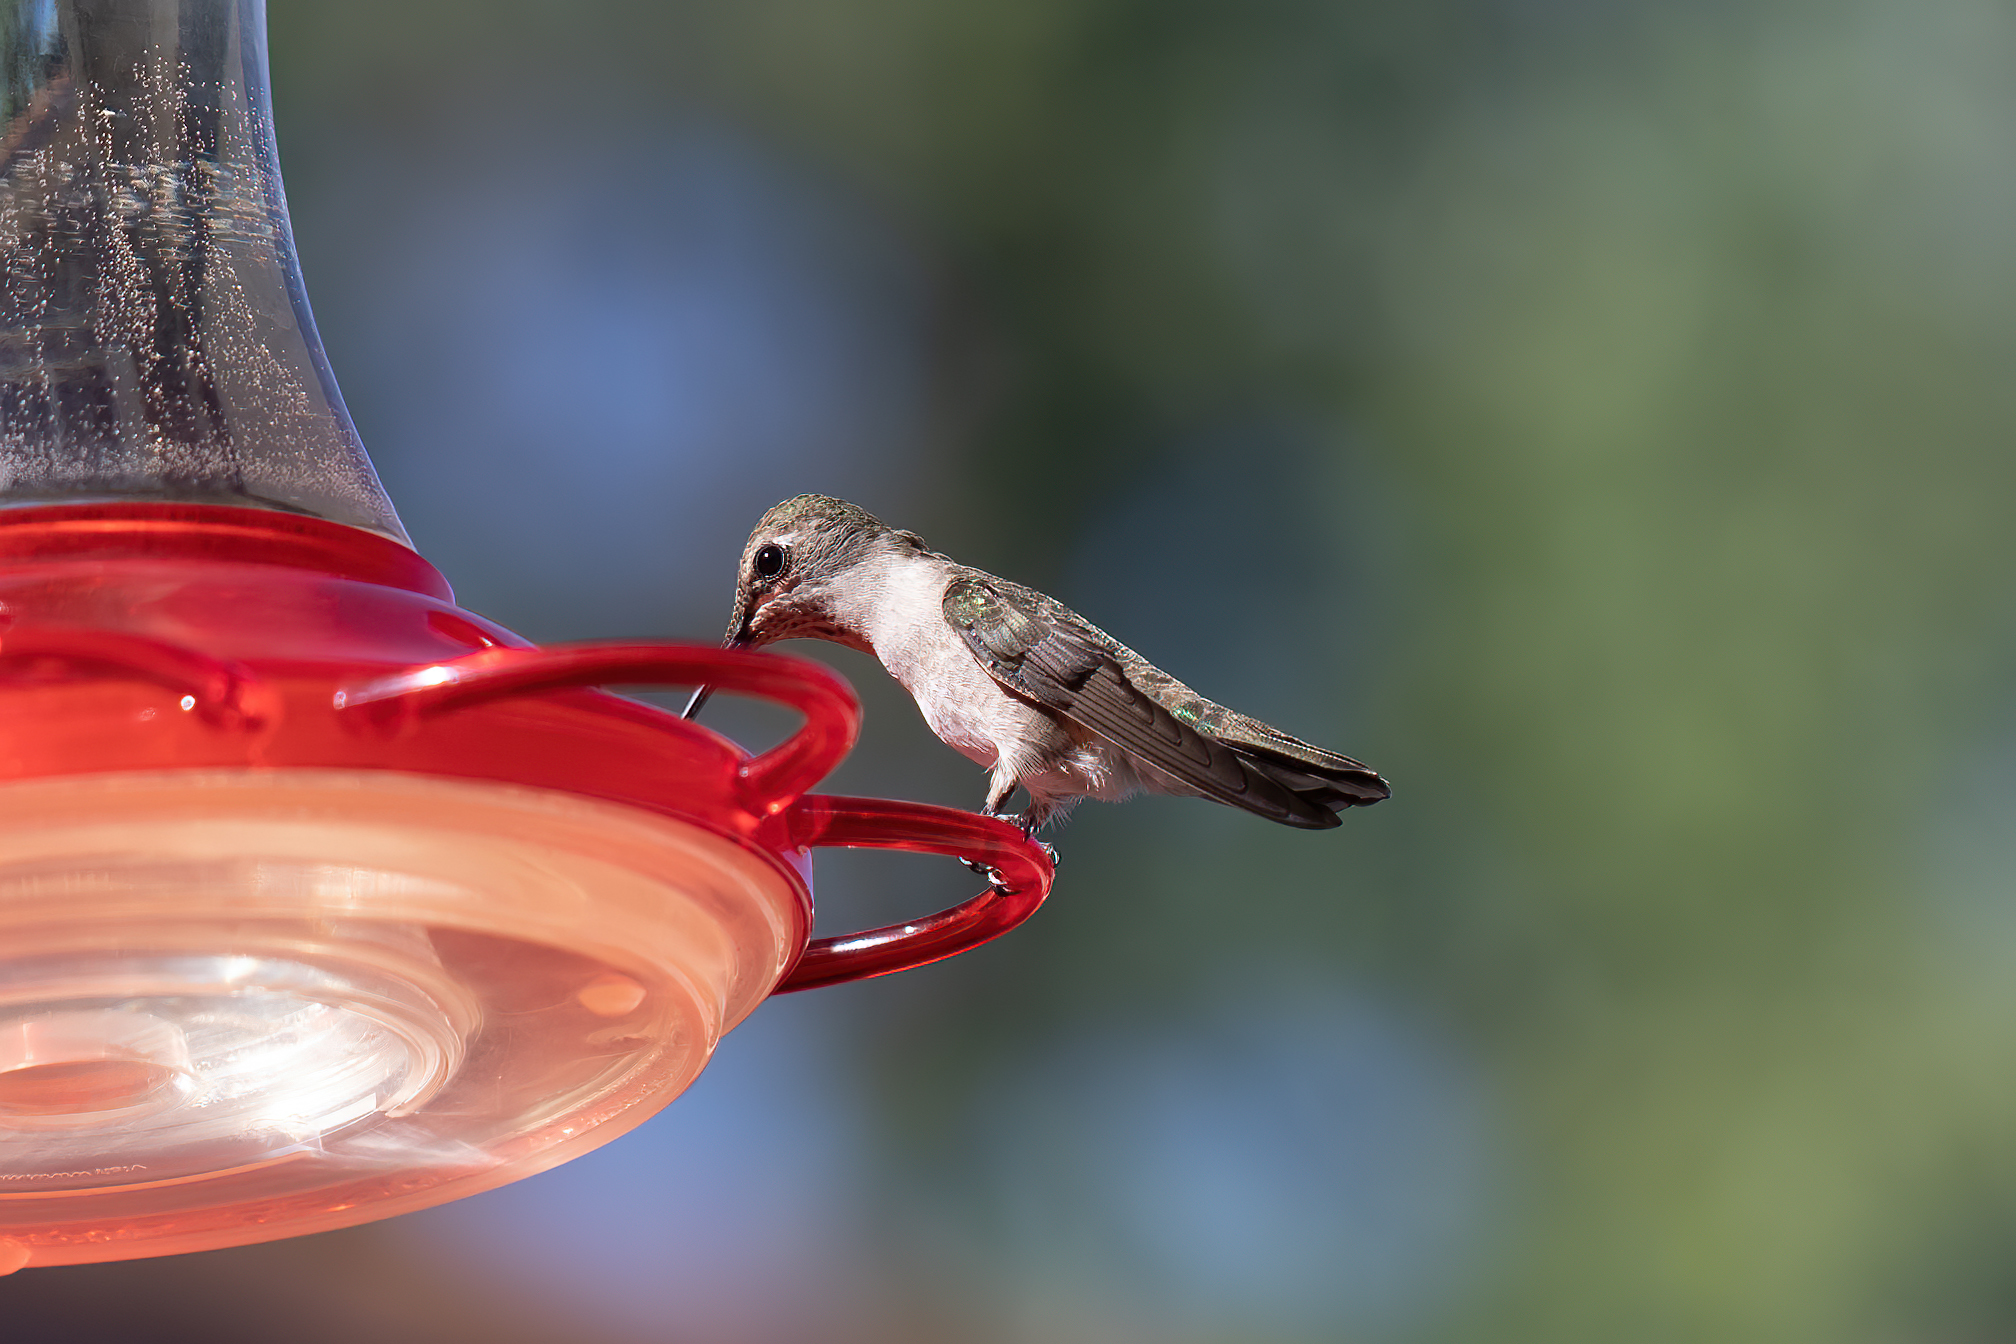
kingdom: Animalia
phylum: Chordata
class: Aves
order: Apodiformes
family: Trochilidae
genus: Archilochus
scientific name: Archilochus alexandri
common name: Black-chinned hummingbird
